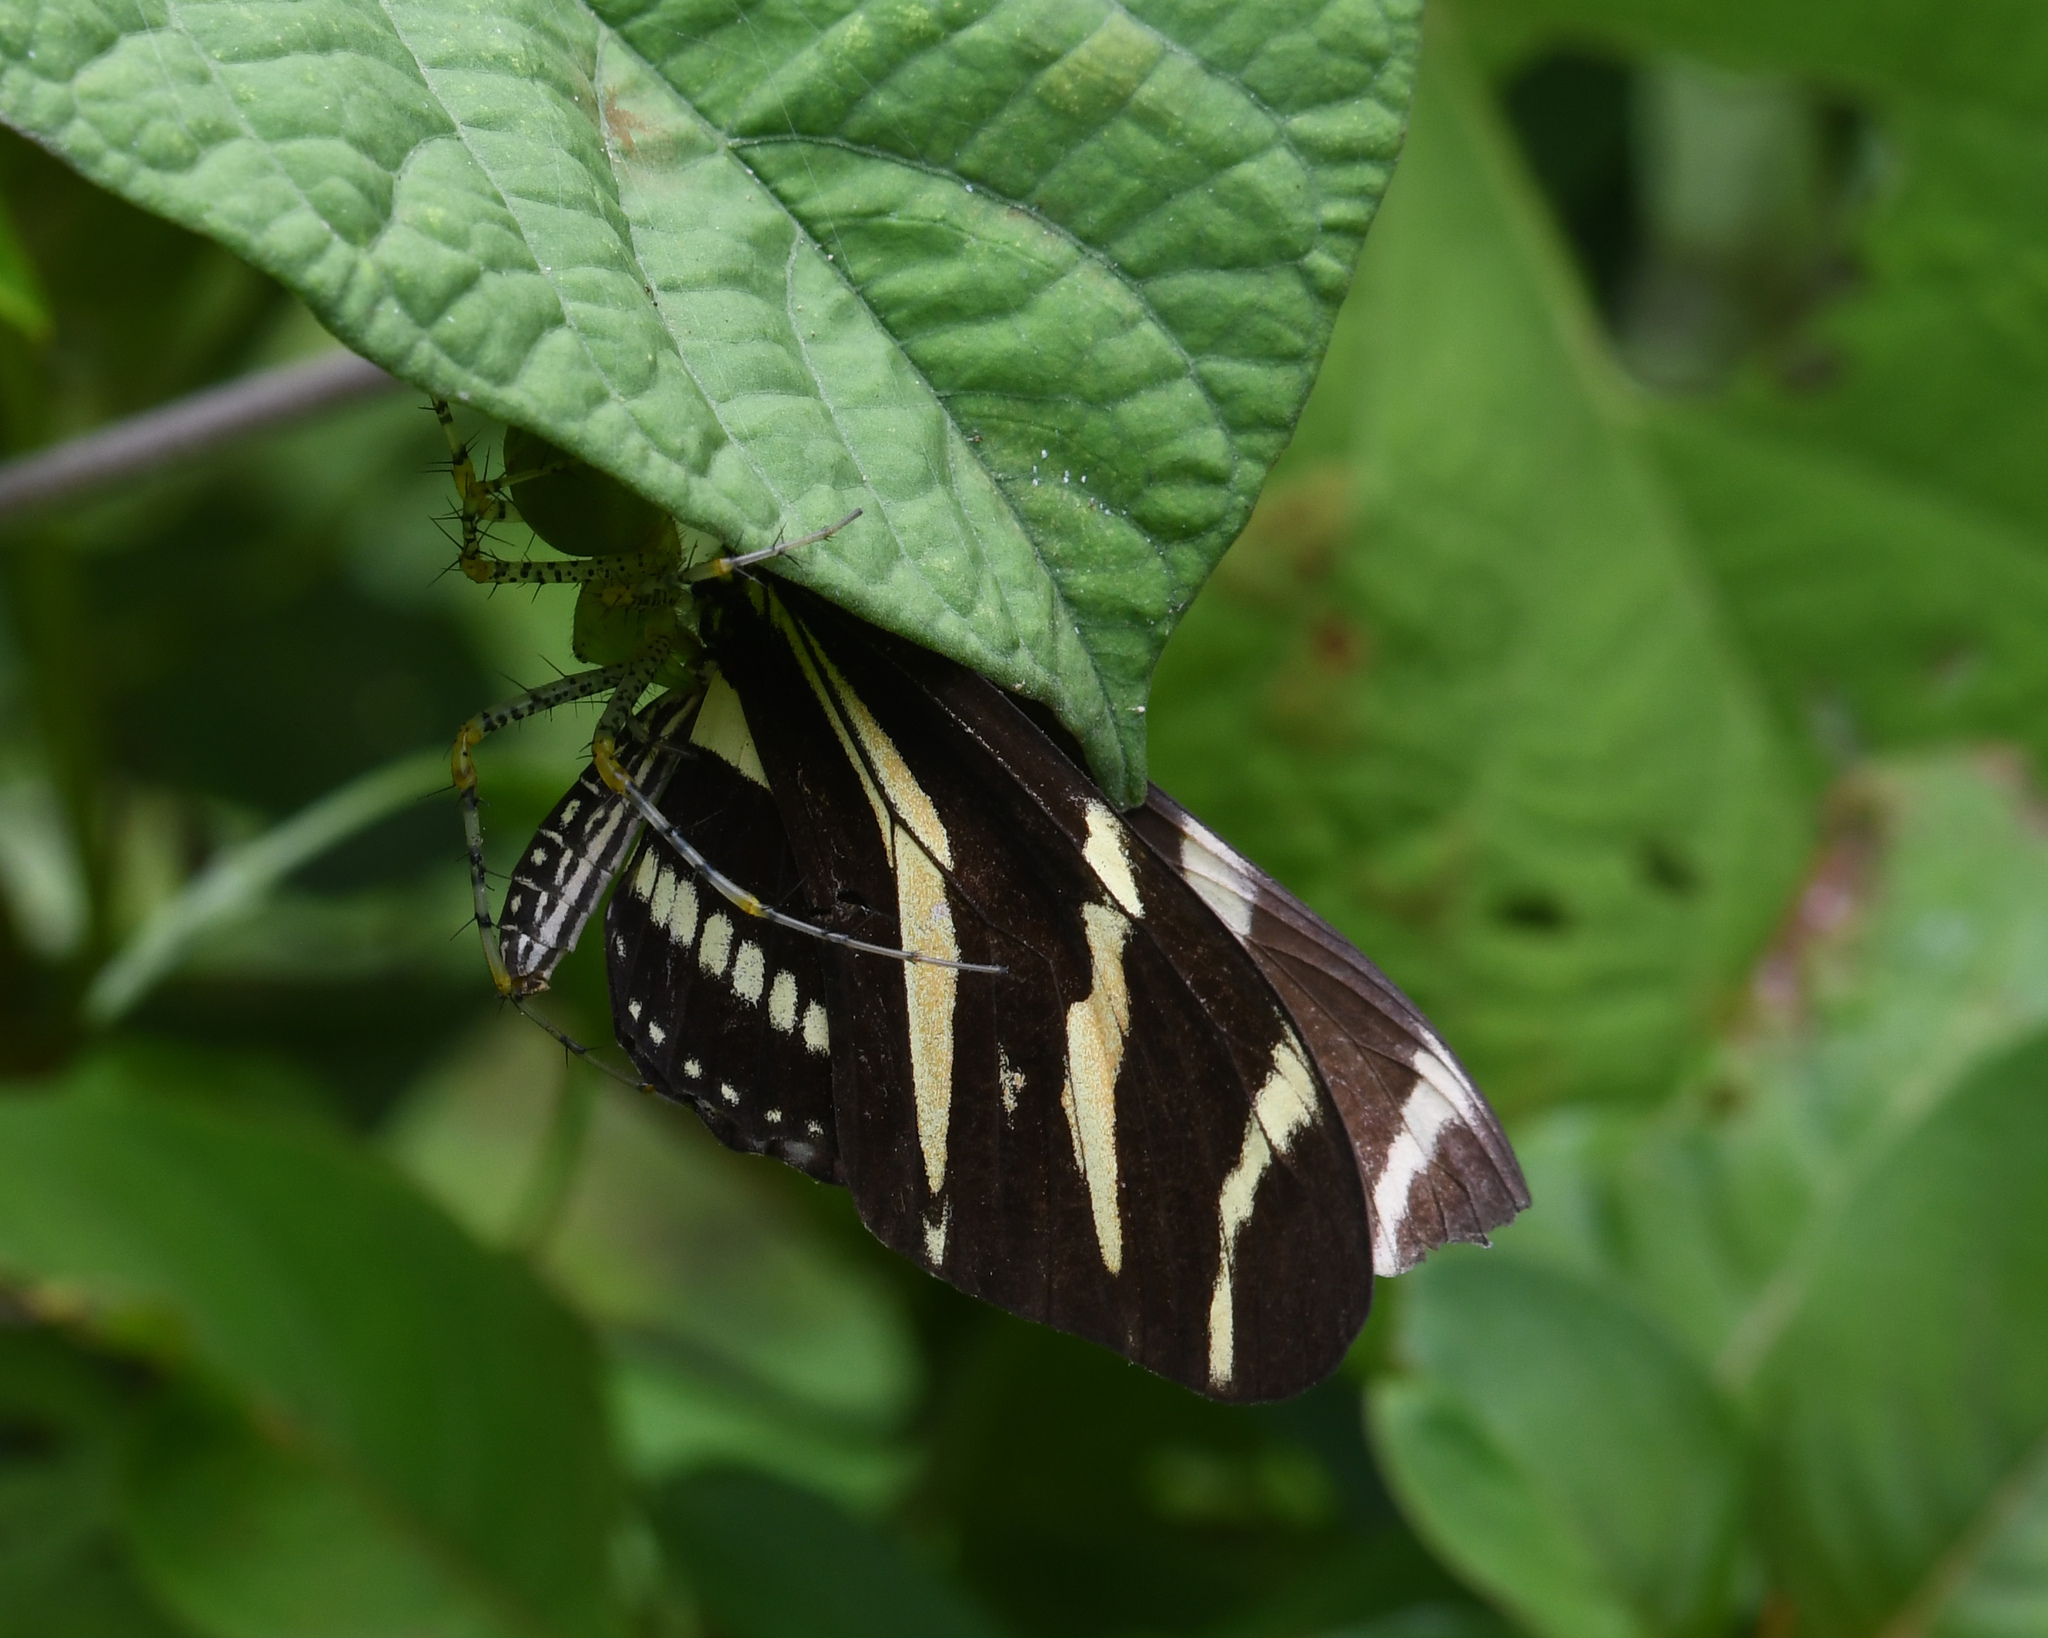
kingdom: Animalia
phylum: Arthropoda
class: Insecta
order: Lepidoptera
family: Nymphalidae
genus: Heliconius
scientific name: Heliconius charithonia
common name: Zebra long wing
